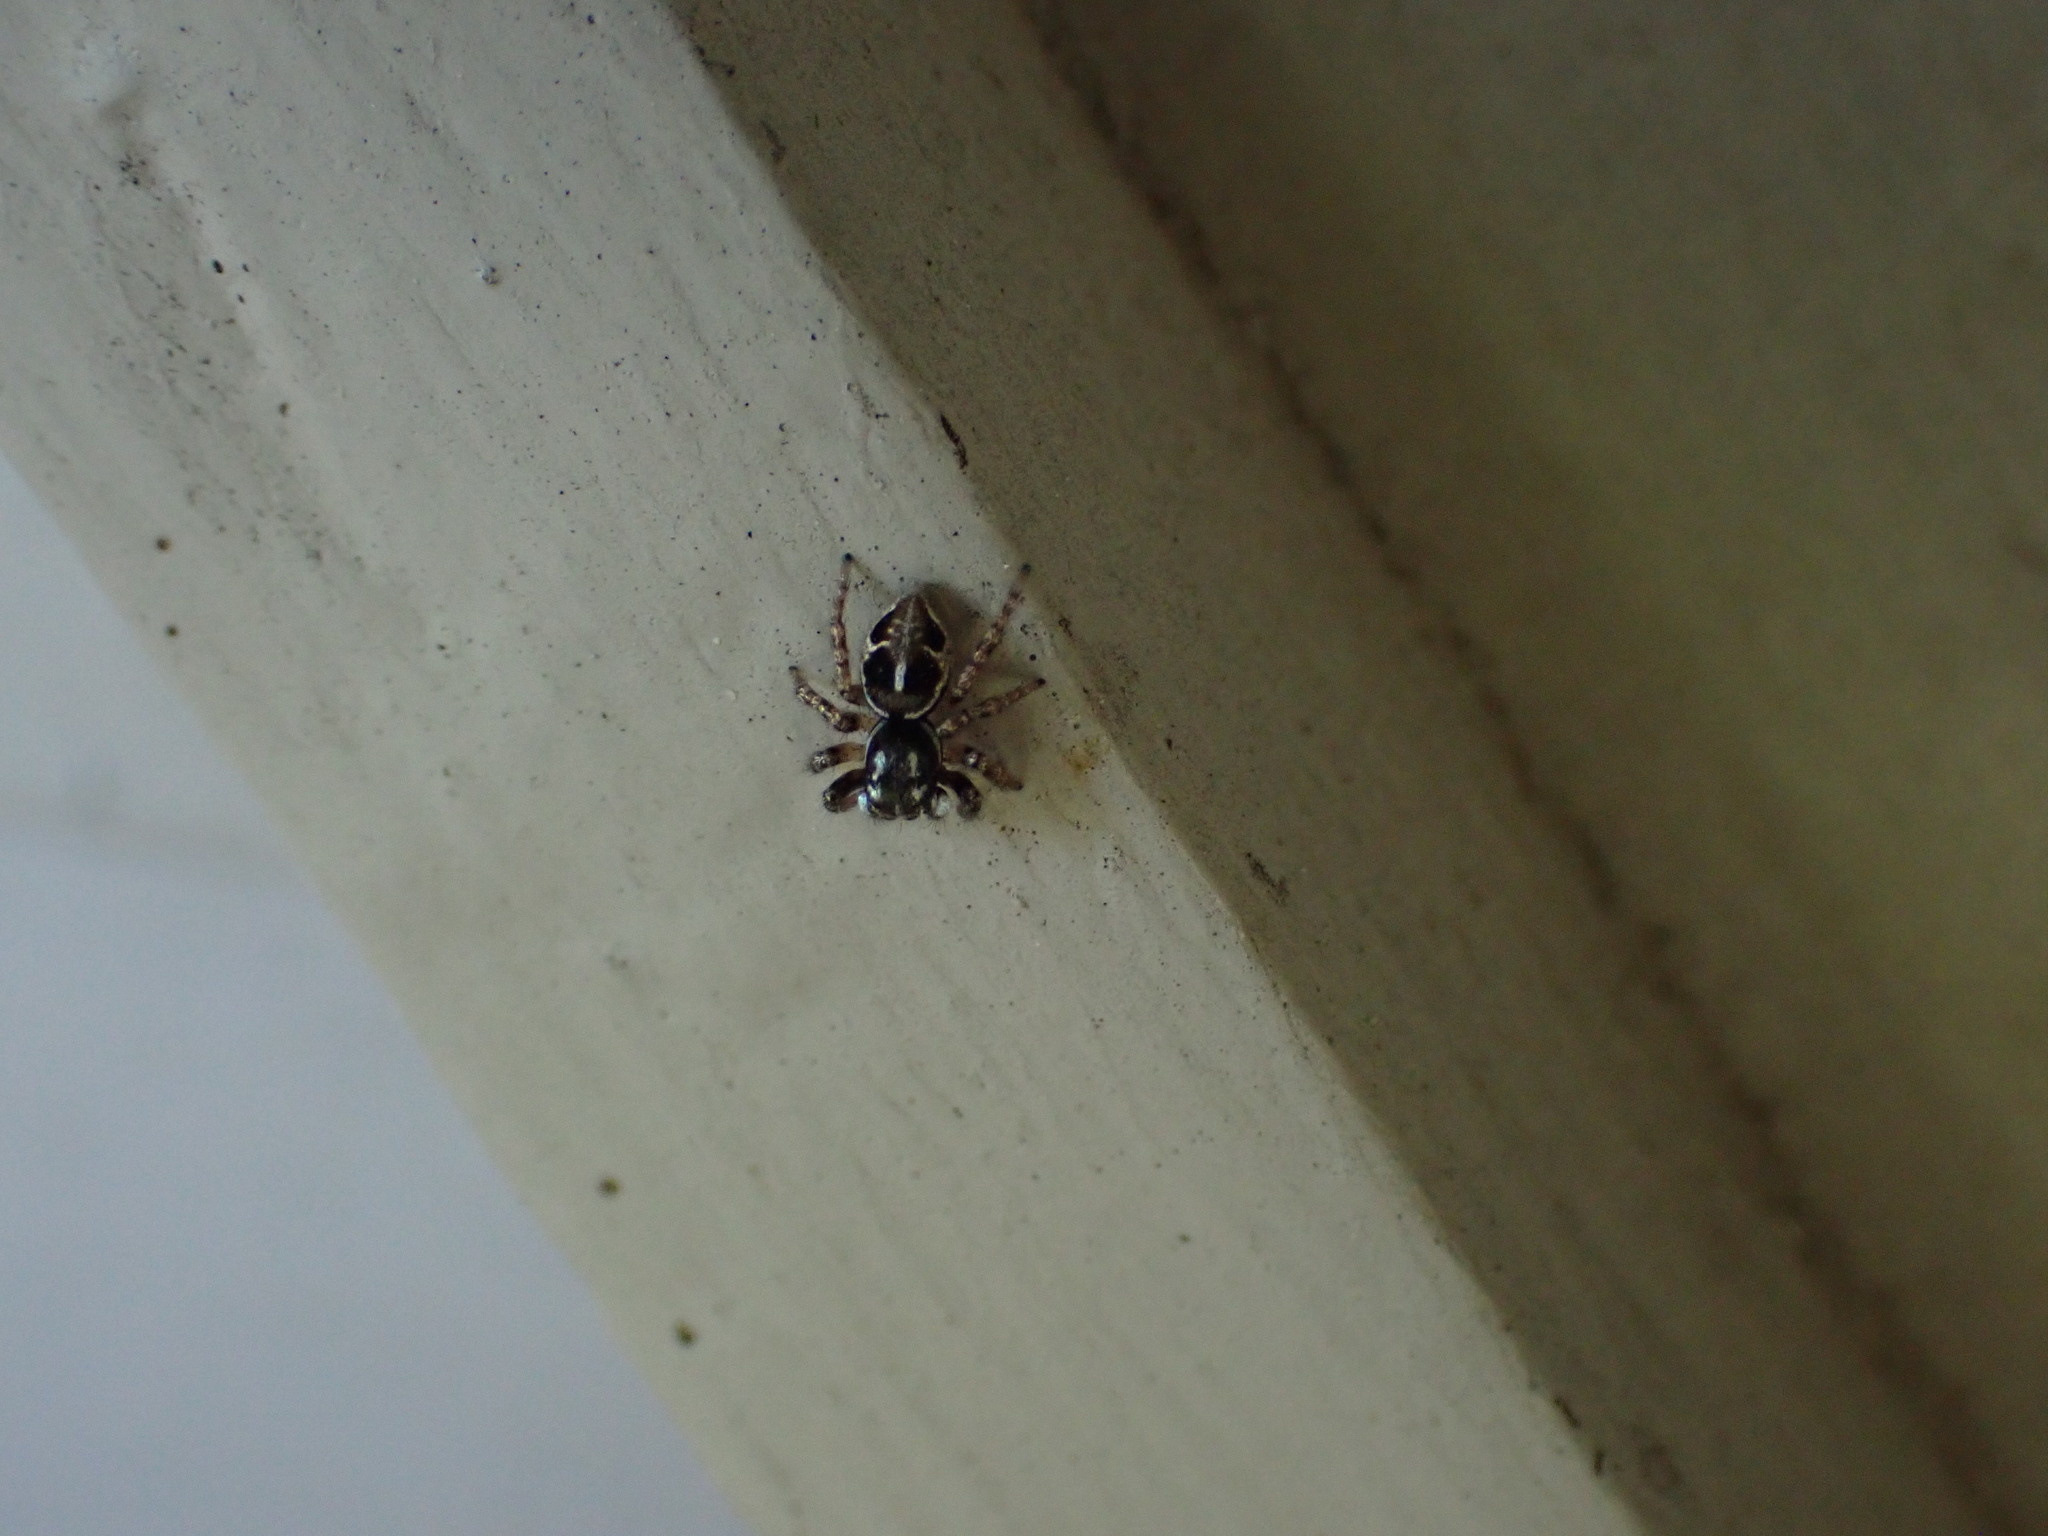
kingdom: Animalia
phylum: Arthropoda
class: Arachnida
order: Araneae
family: Salticidae
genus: Anasaitis
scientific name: Anasaitis canosa
